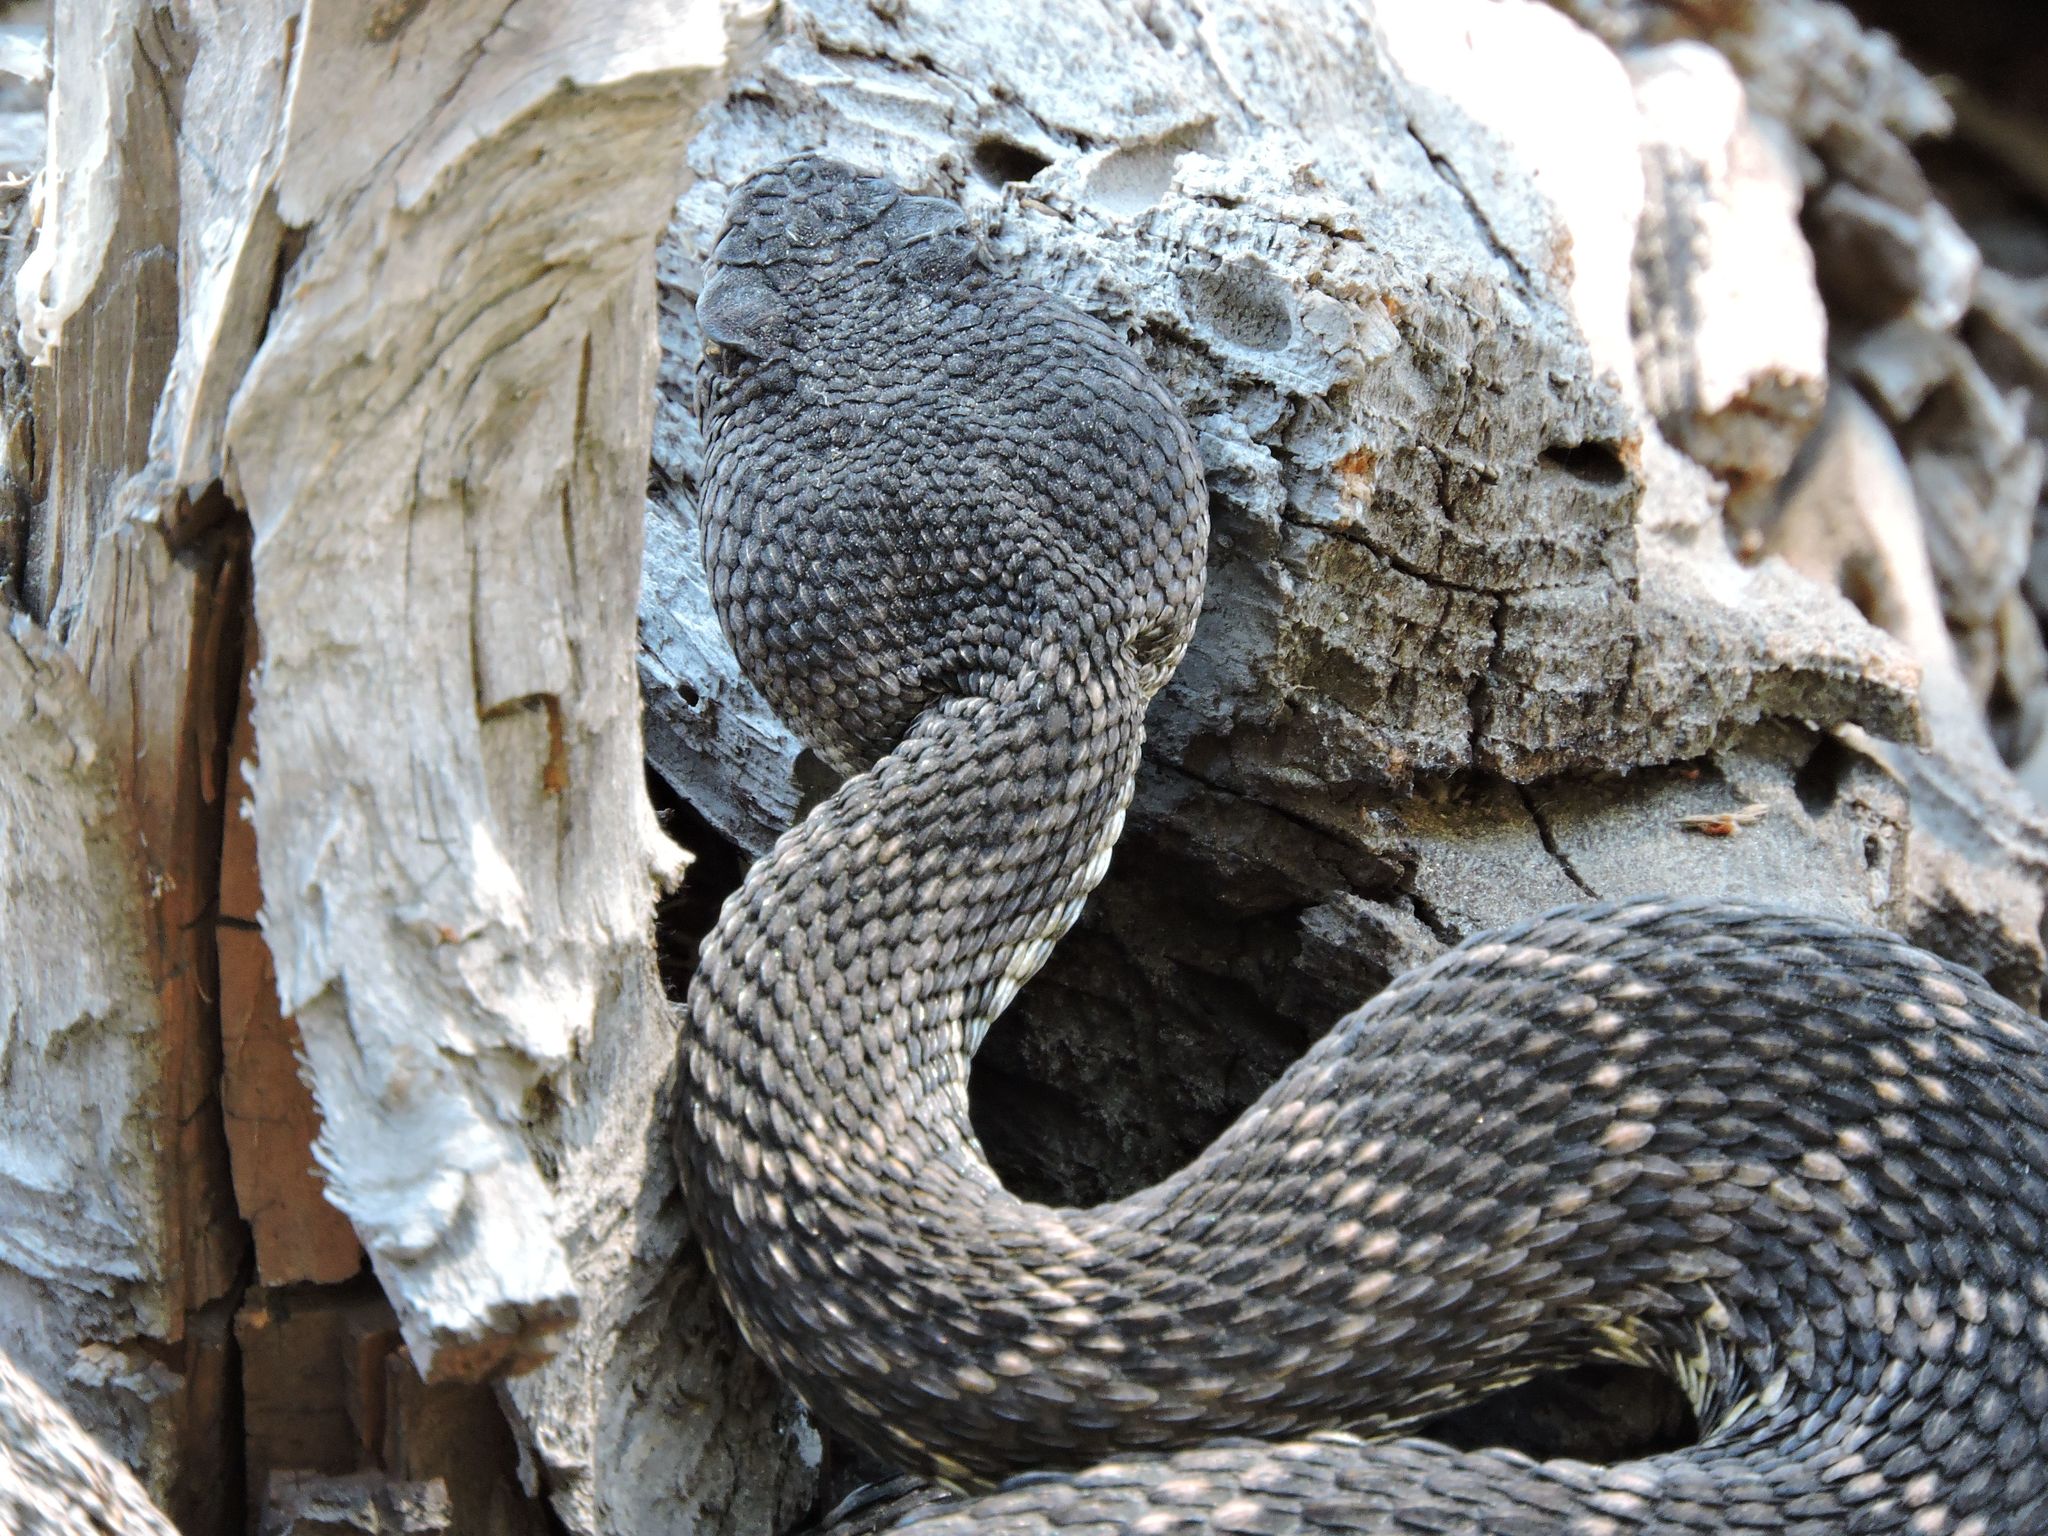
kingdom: Animalia
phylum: Chordata
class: Squamata
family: Viperidae
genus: Crotalus
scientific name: Crotalus oreganus
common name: Abyssus
